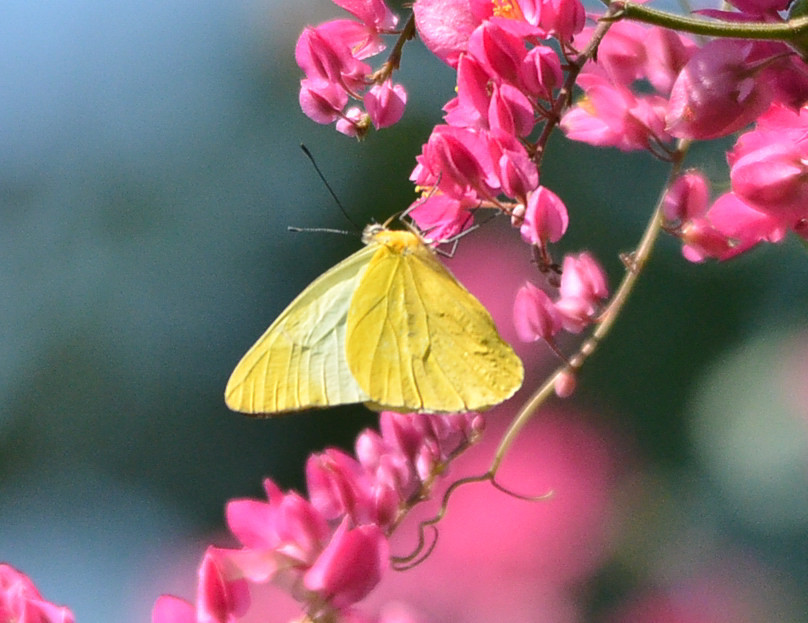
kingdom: Animalia
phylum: Arthropoda
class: Insecta
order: Lepidoptera
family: Pieridae
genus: Melete
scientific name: Melete lycimnia
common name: Common melwhite
